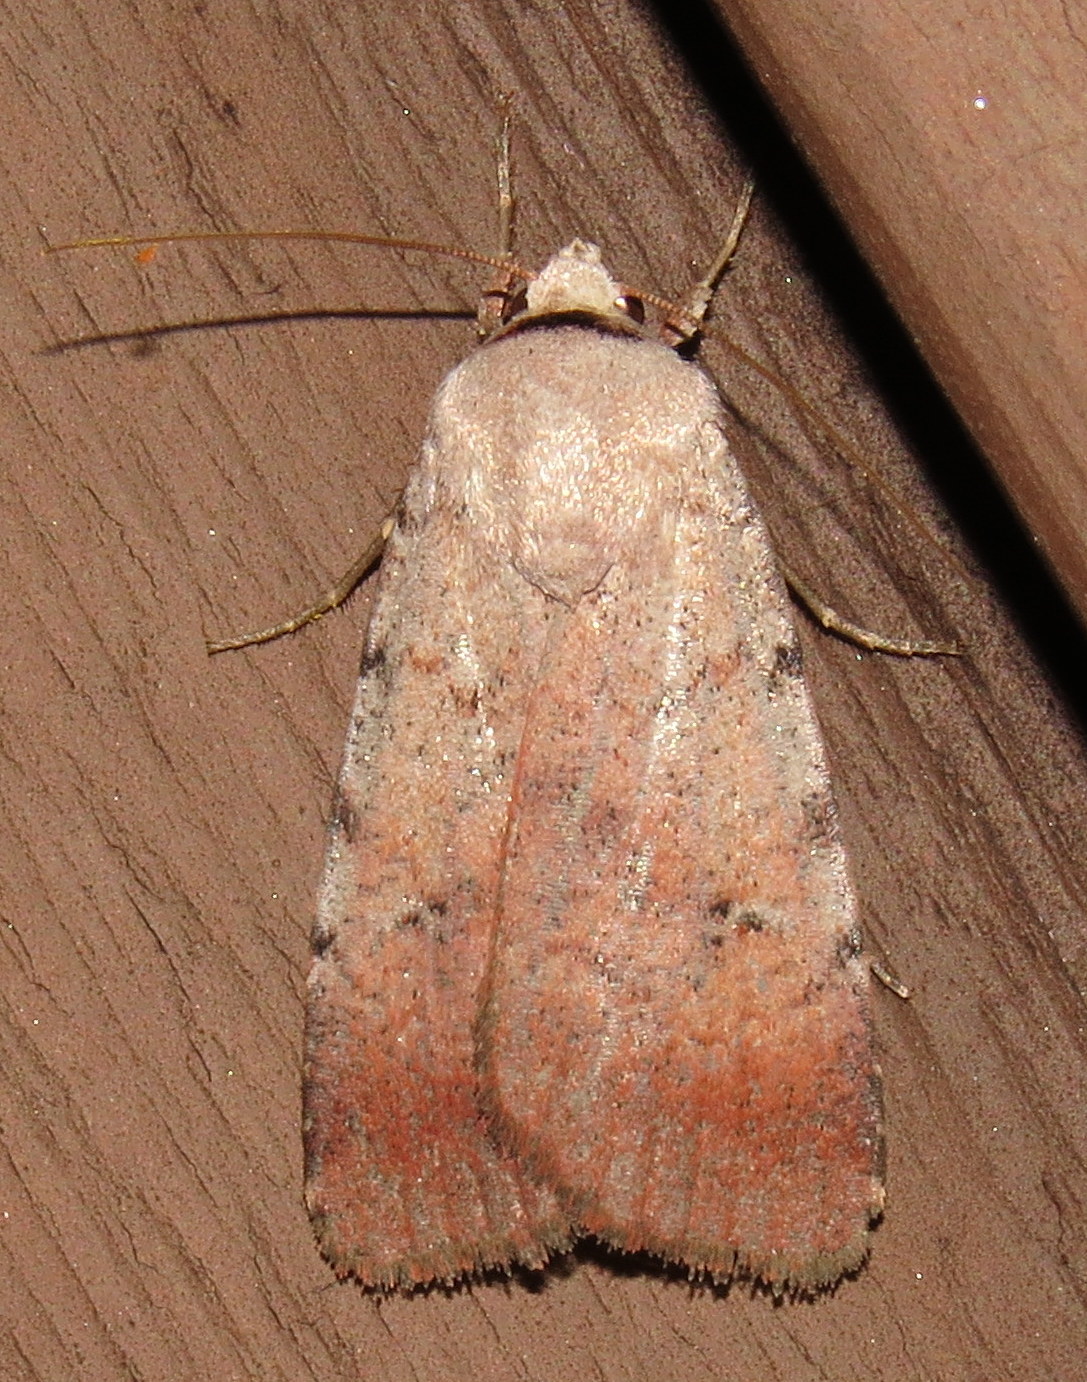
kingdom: Animalia
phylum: Arthropoda
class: Insecta
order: Lepidoptera
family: Noctuidae
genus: Anicla
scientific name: Anicla illapsa
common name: Snowy dart
